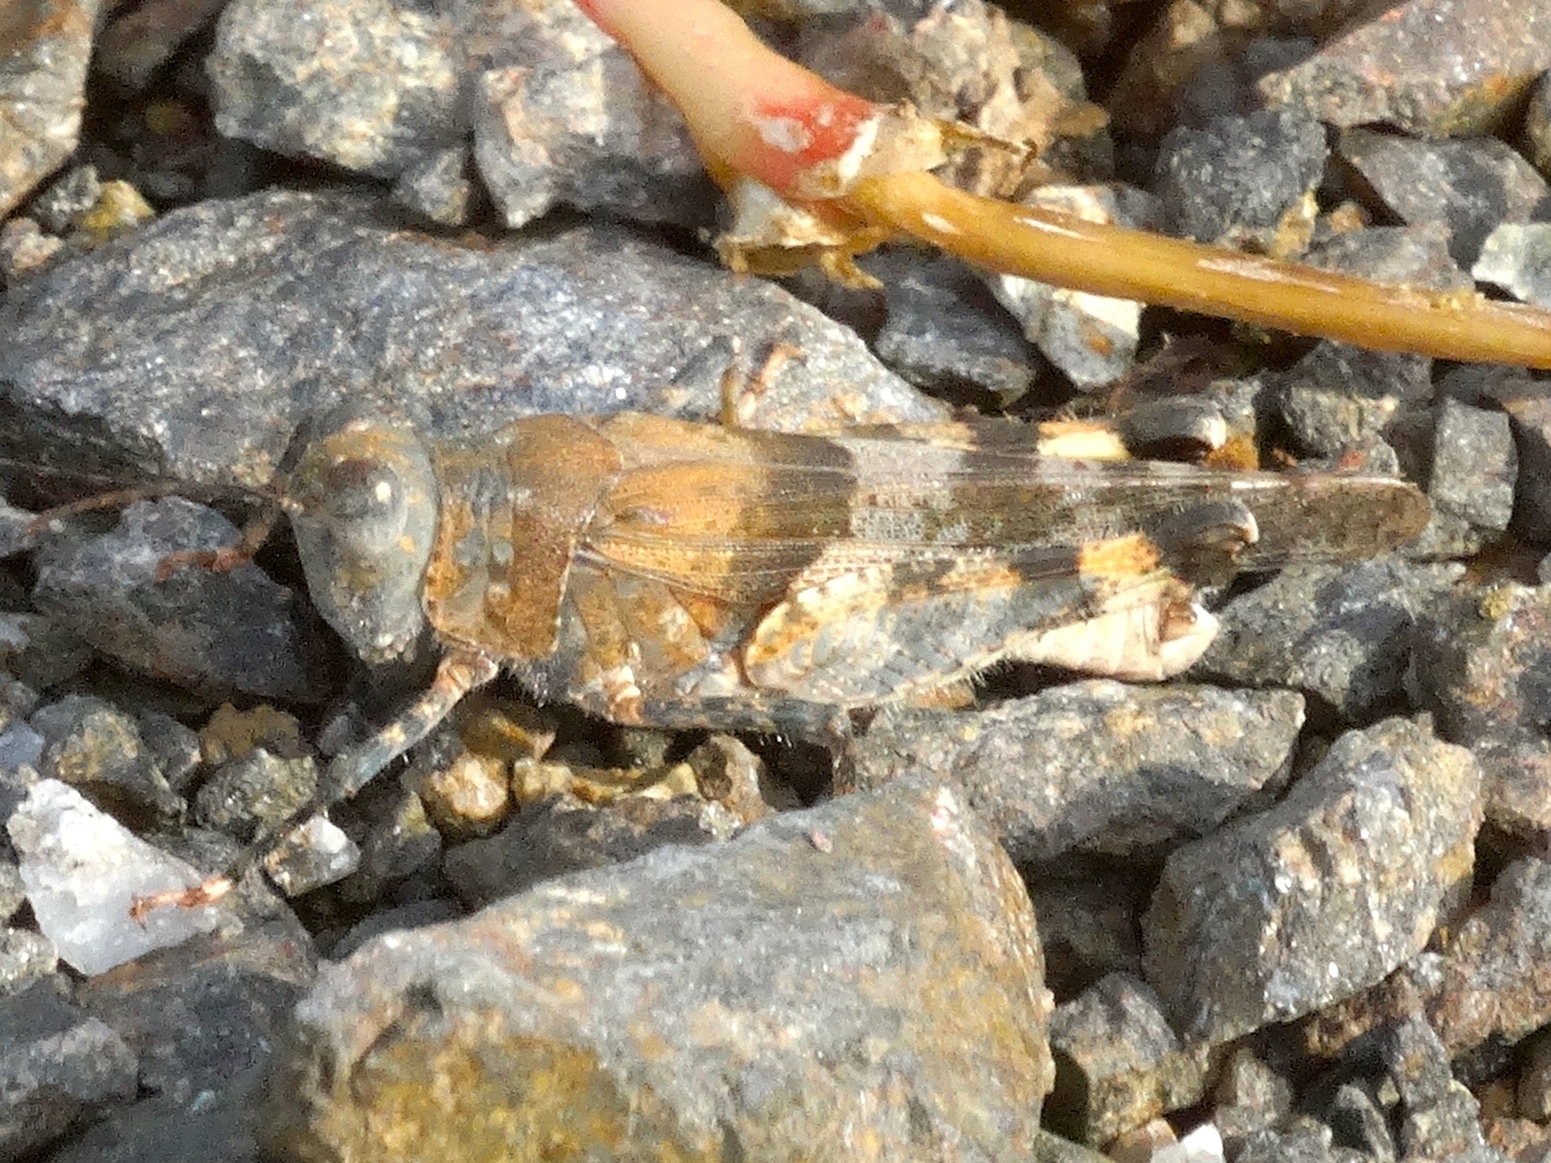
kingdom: Animalia
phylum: Arthropoda
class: Insecta
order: Orthoptera
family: Acrididae
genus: Heliastus
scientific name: Heliastus benjamini
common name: Arroyo grasshopper
